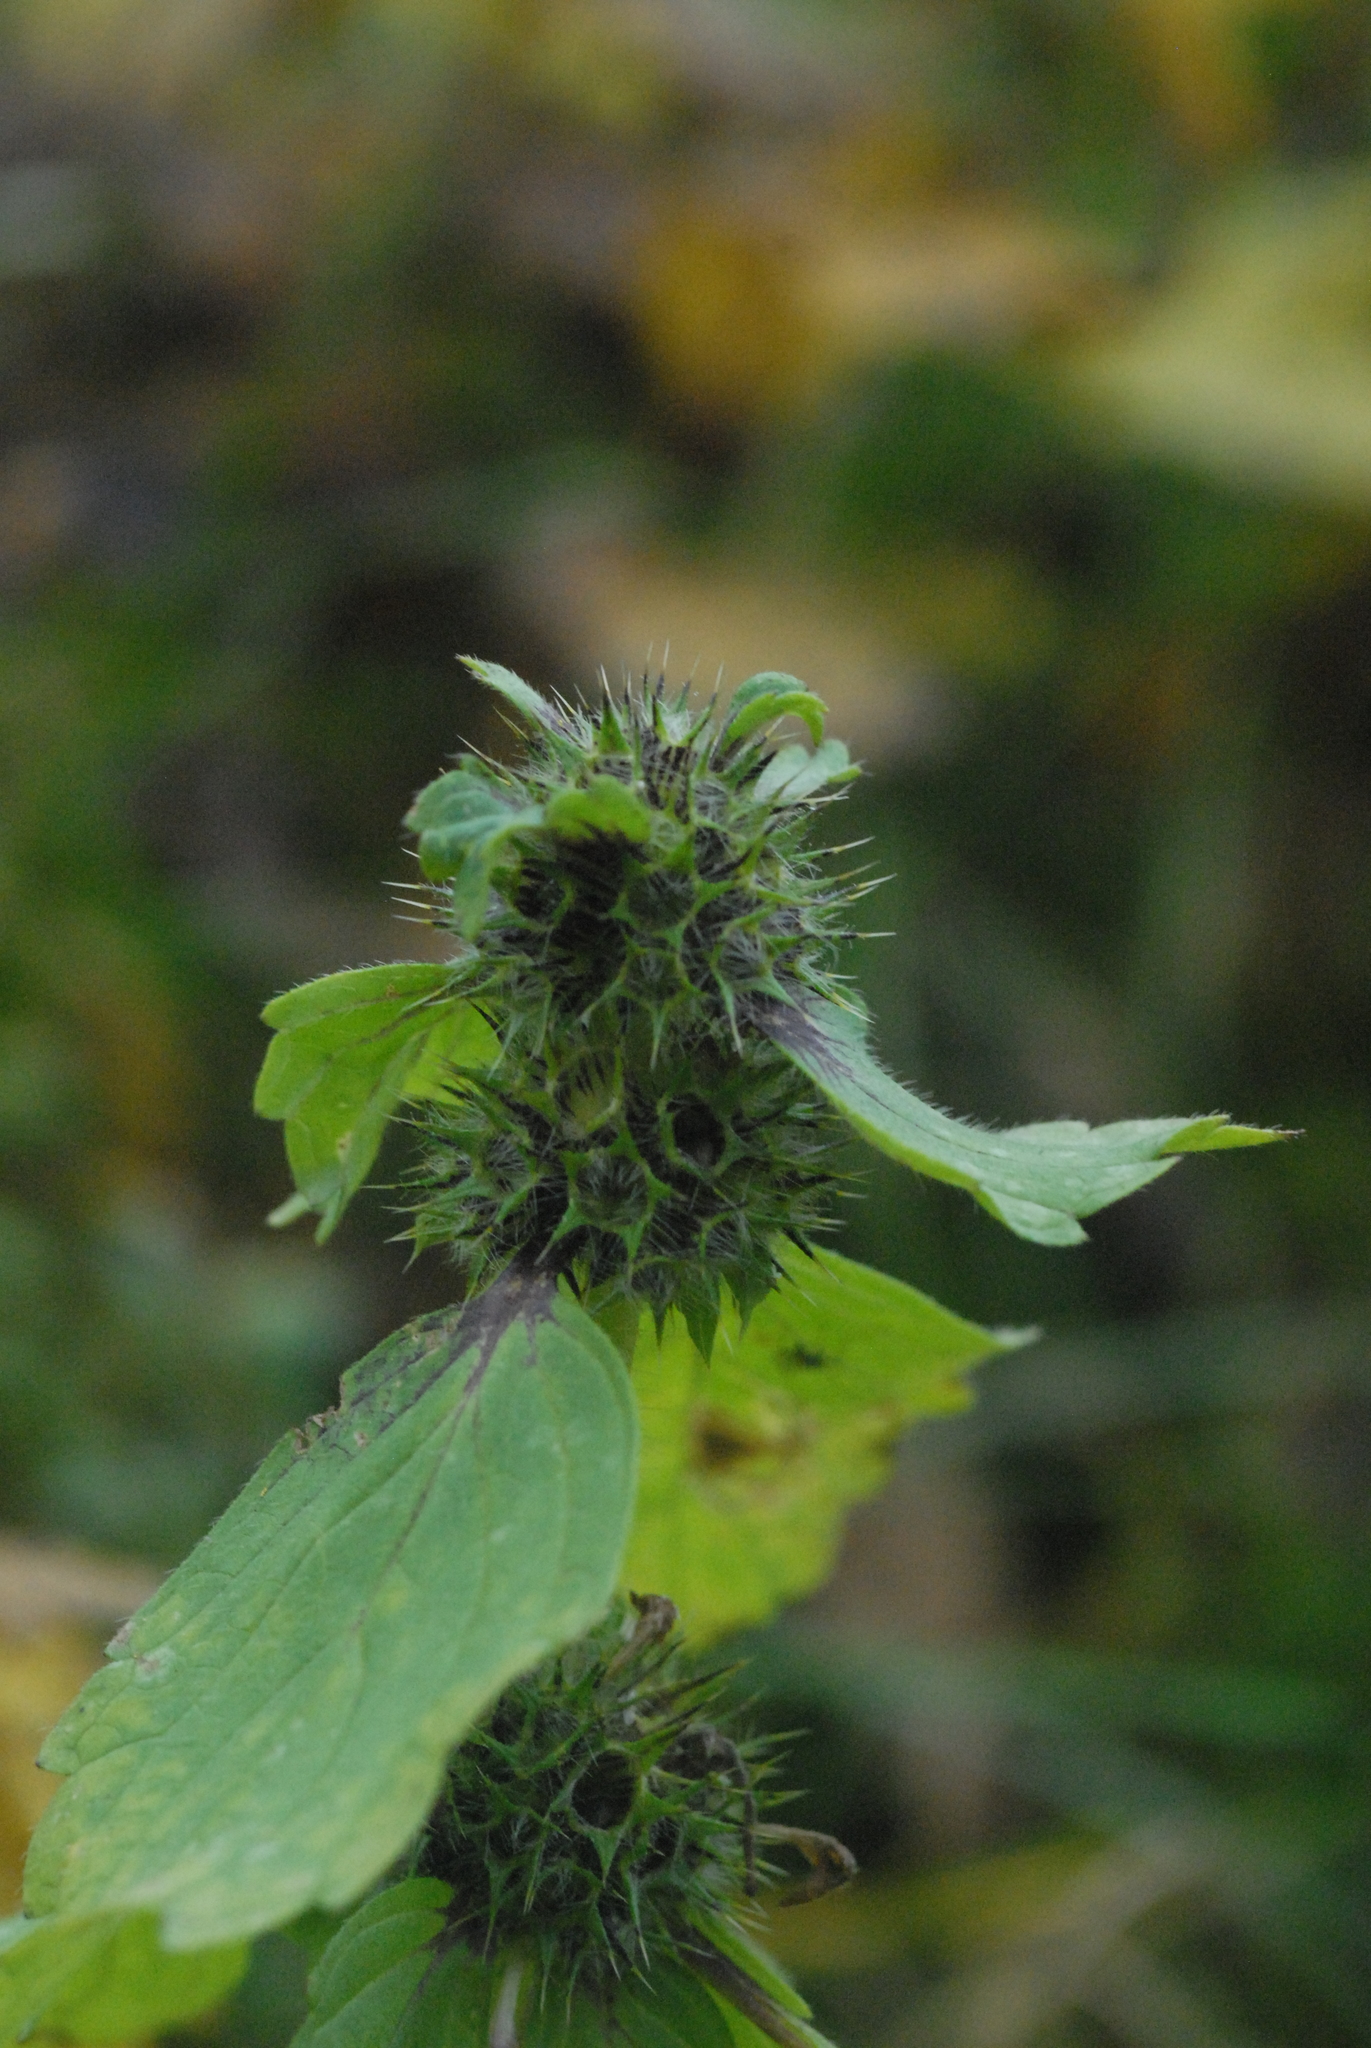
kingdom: Plantae
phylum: Tracheophyta
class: Magnoliopsida
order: Lamiales
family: Lamiaceae
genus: Galeopsis
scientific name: Galeopsis
